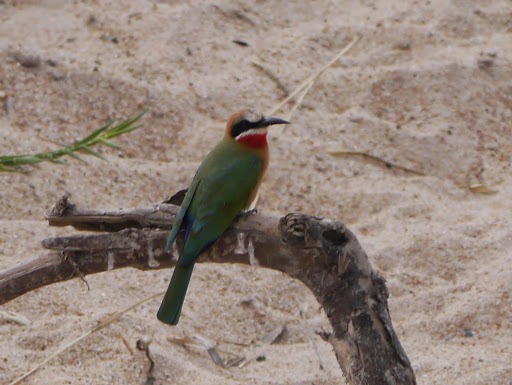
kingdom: Animalia
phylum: Chordata
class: Aves
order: Coraciiformes
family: Meropidae
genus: Merops
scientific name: Merops bullockoides
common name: White-fronted bee-eater
